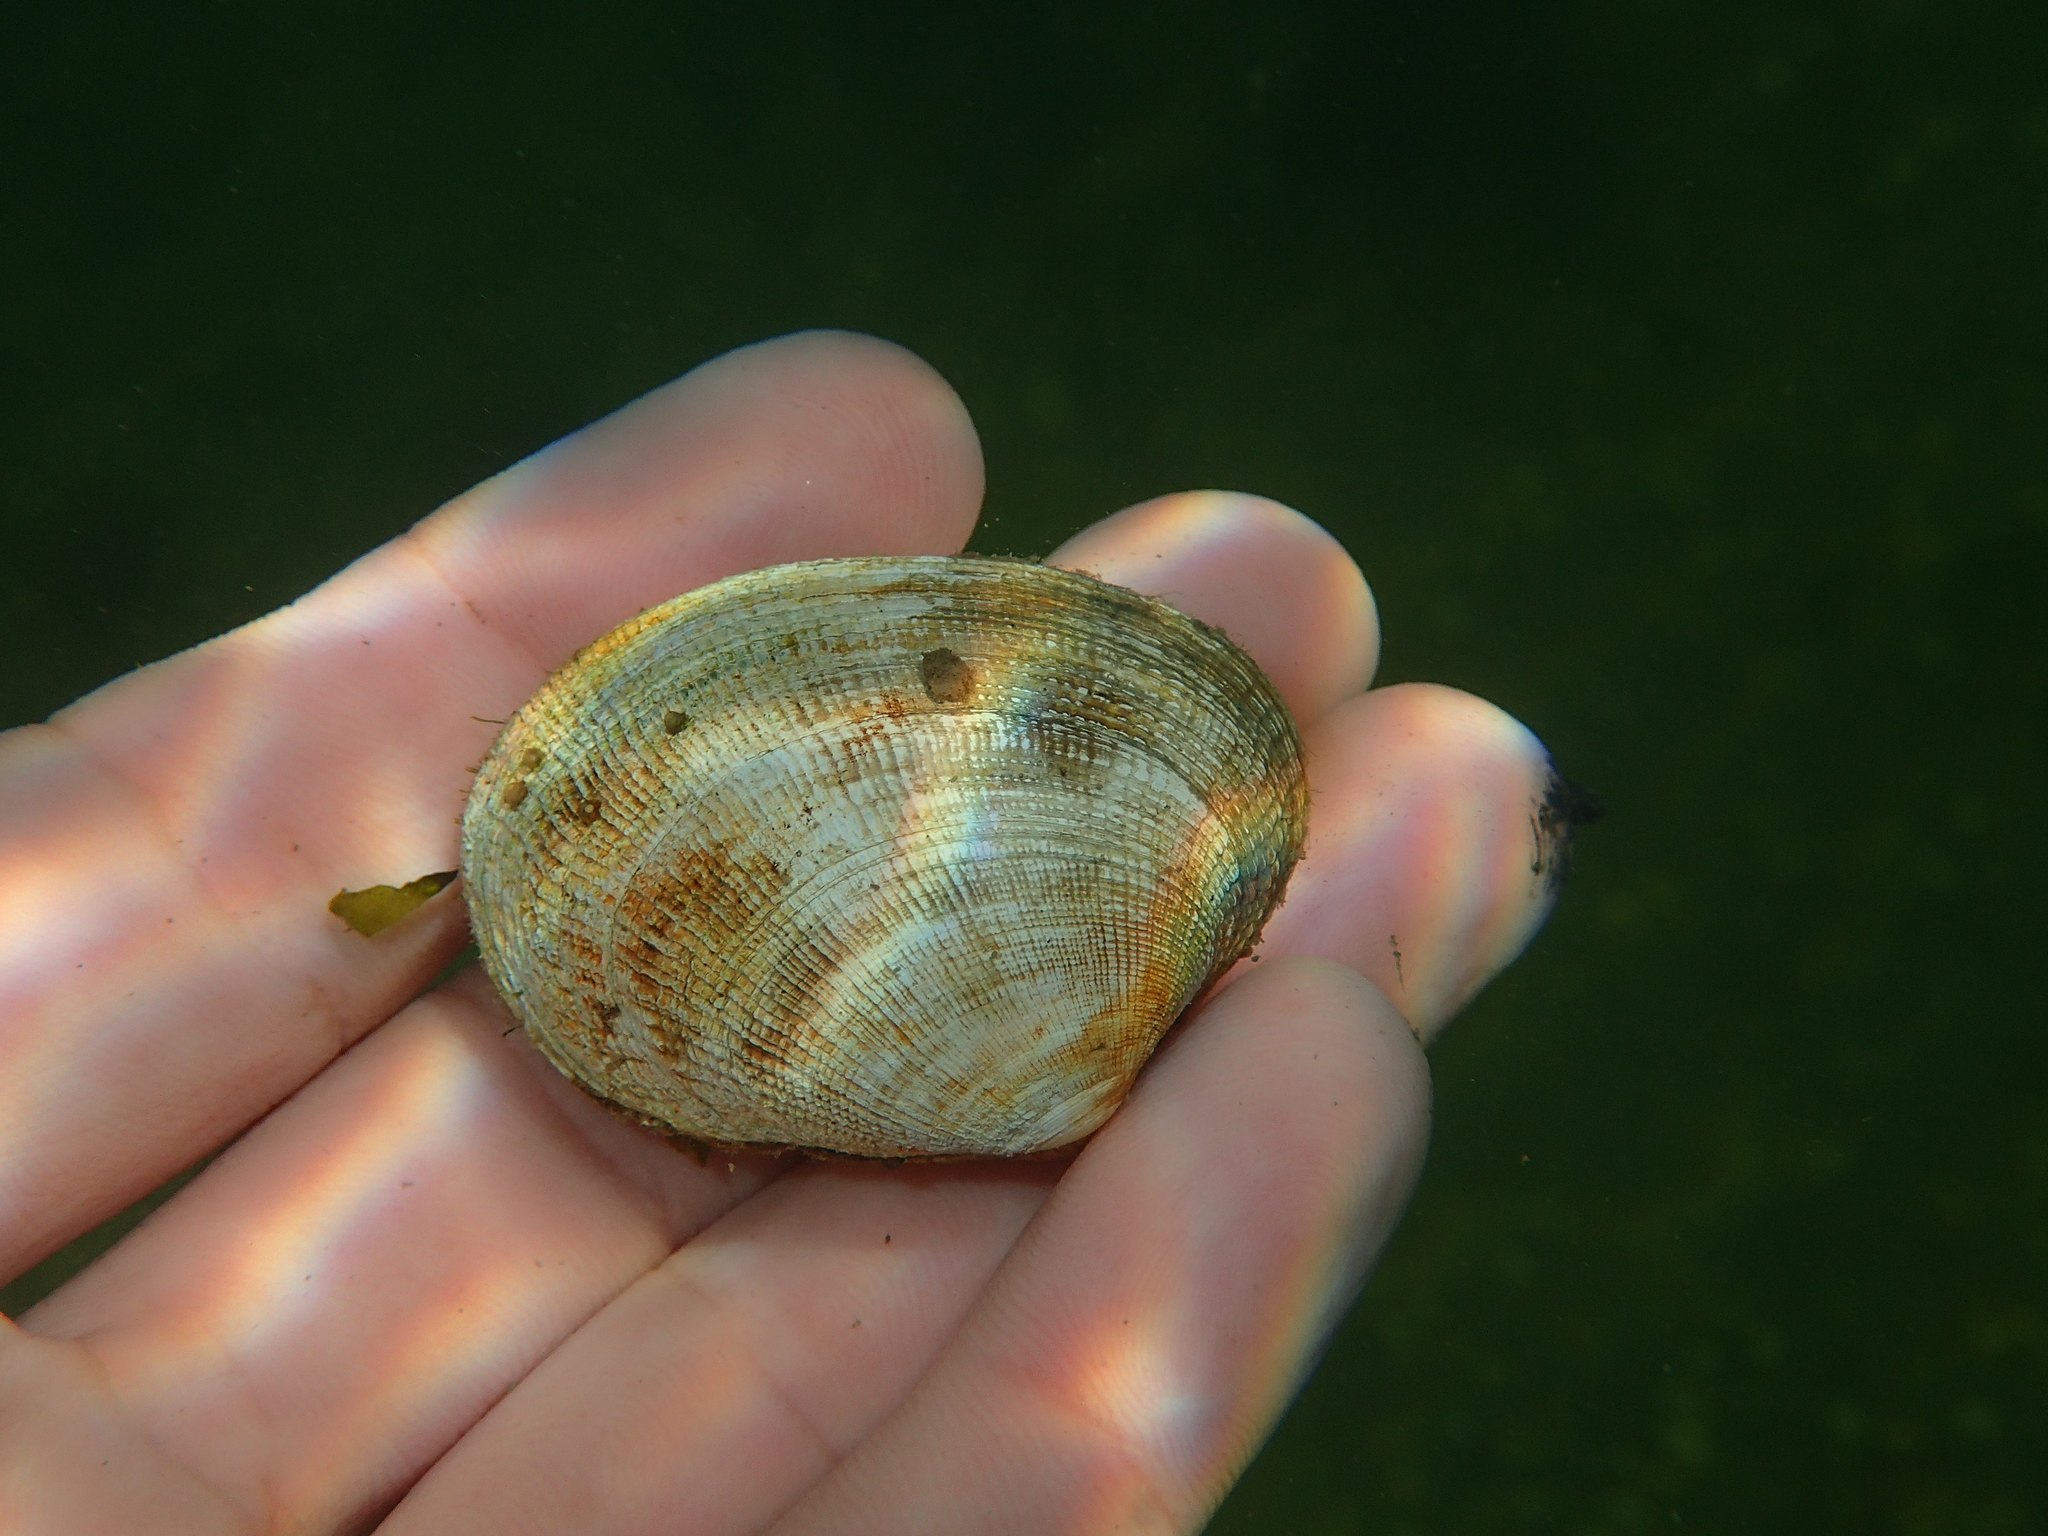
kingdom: Animalia
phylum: Mollusca
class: Bivalvia
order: Venerida
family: Veneridae
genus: Ruditapes
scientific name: Ruditapes decussatus
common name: Chequered carpet shell
